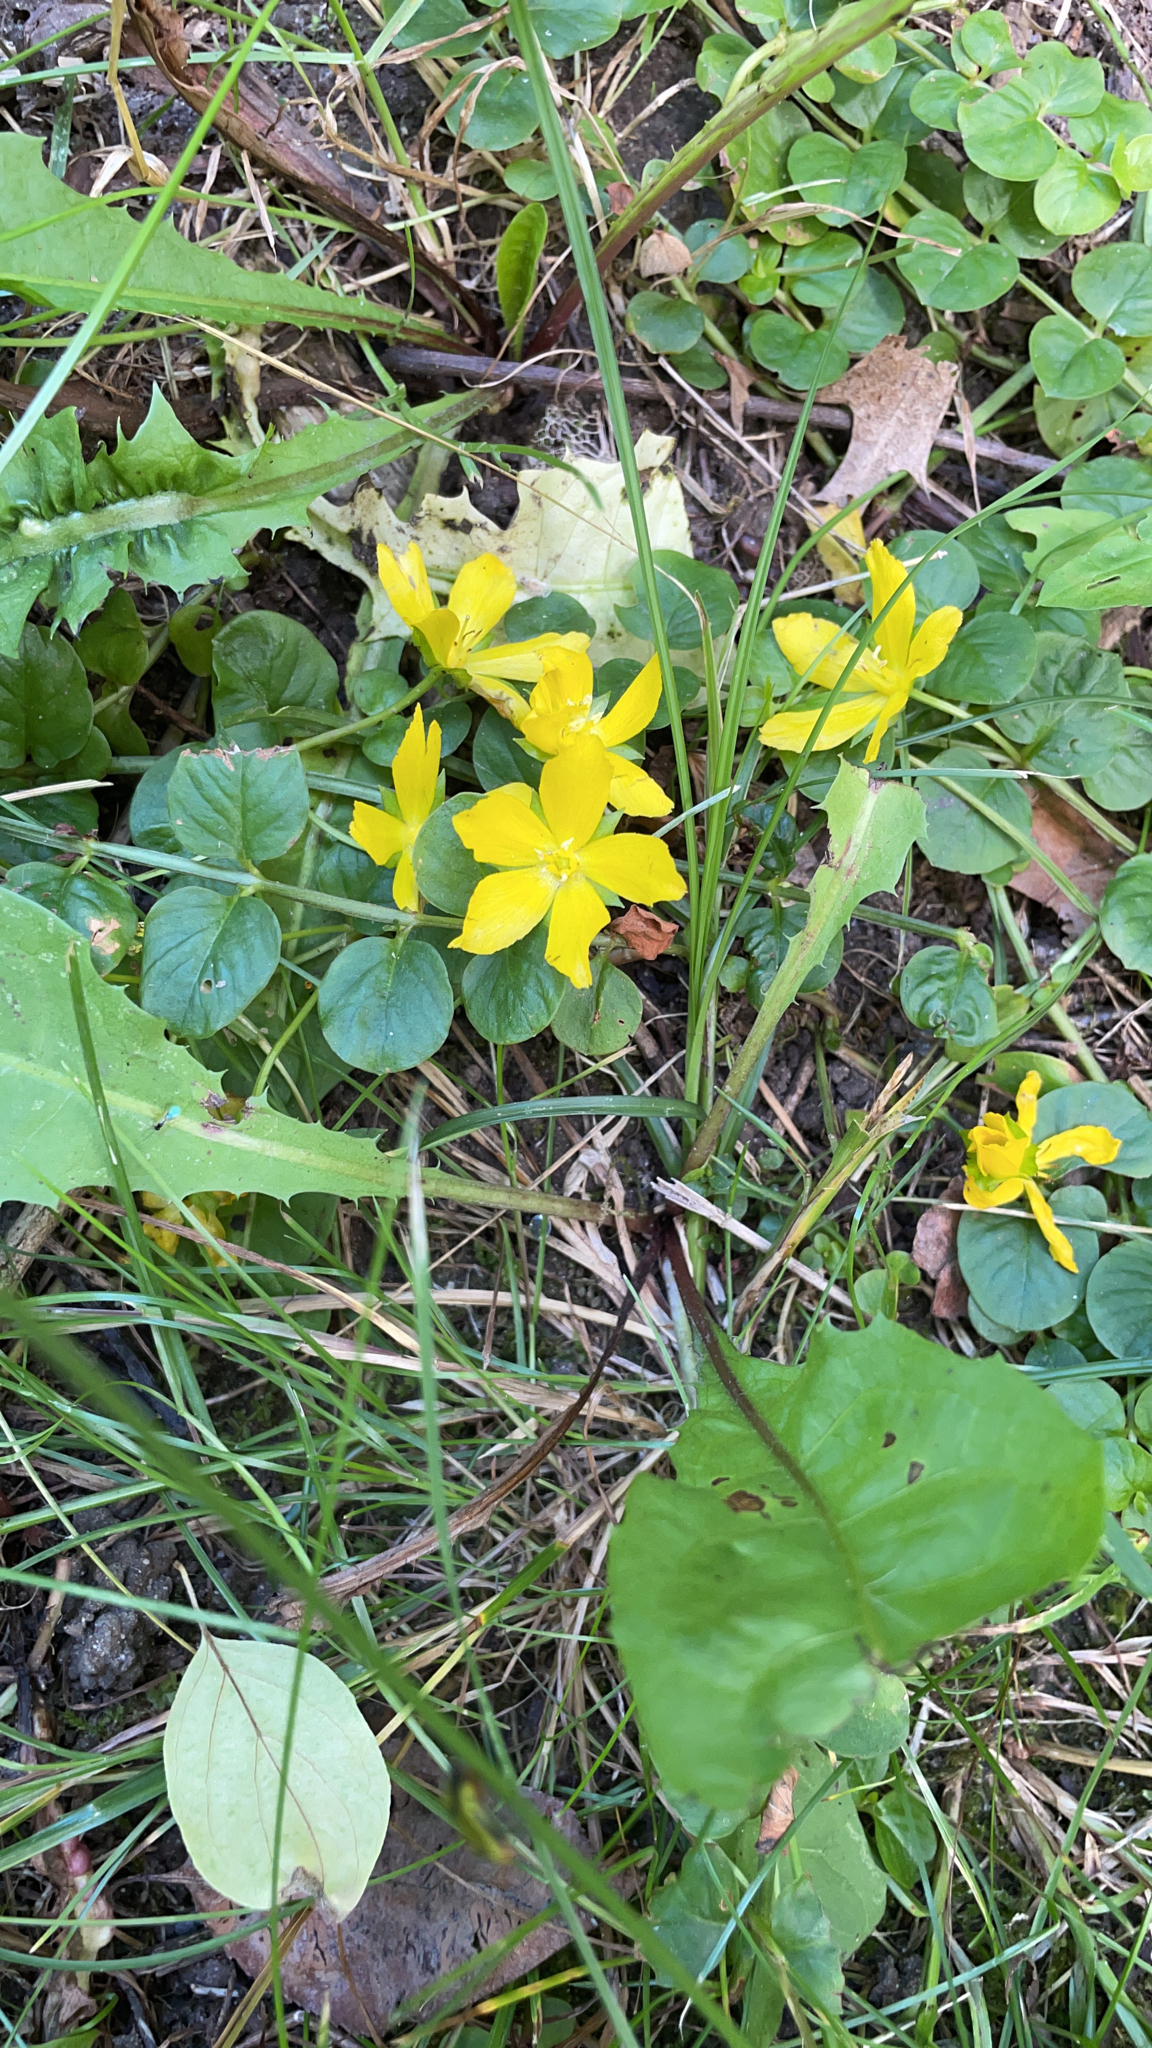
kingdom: Plantae
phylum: Tracheophyta
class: Magnoliopsida
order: Ericales
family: Primulaceae
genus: Lysimachia
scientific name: Lysimachia nummularia
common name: Moneywort
